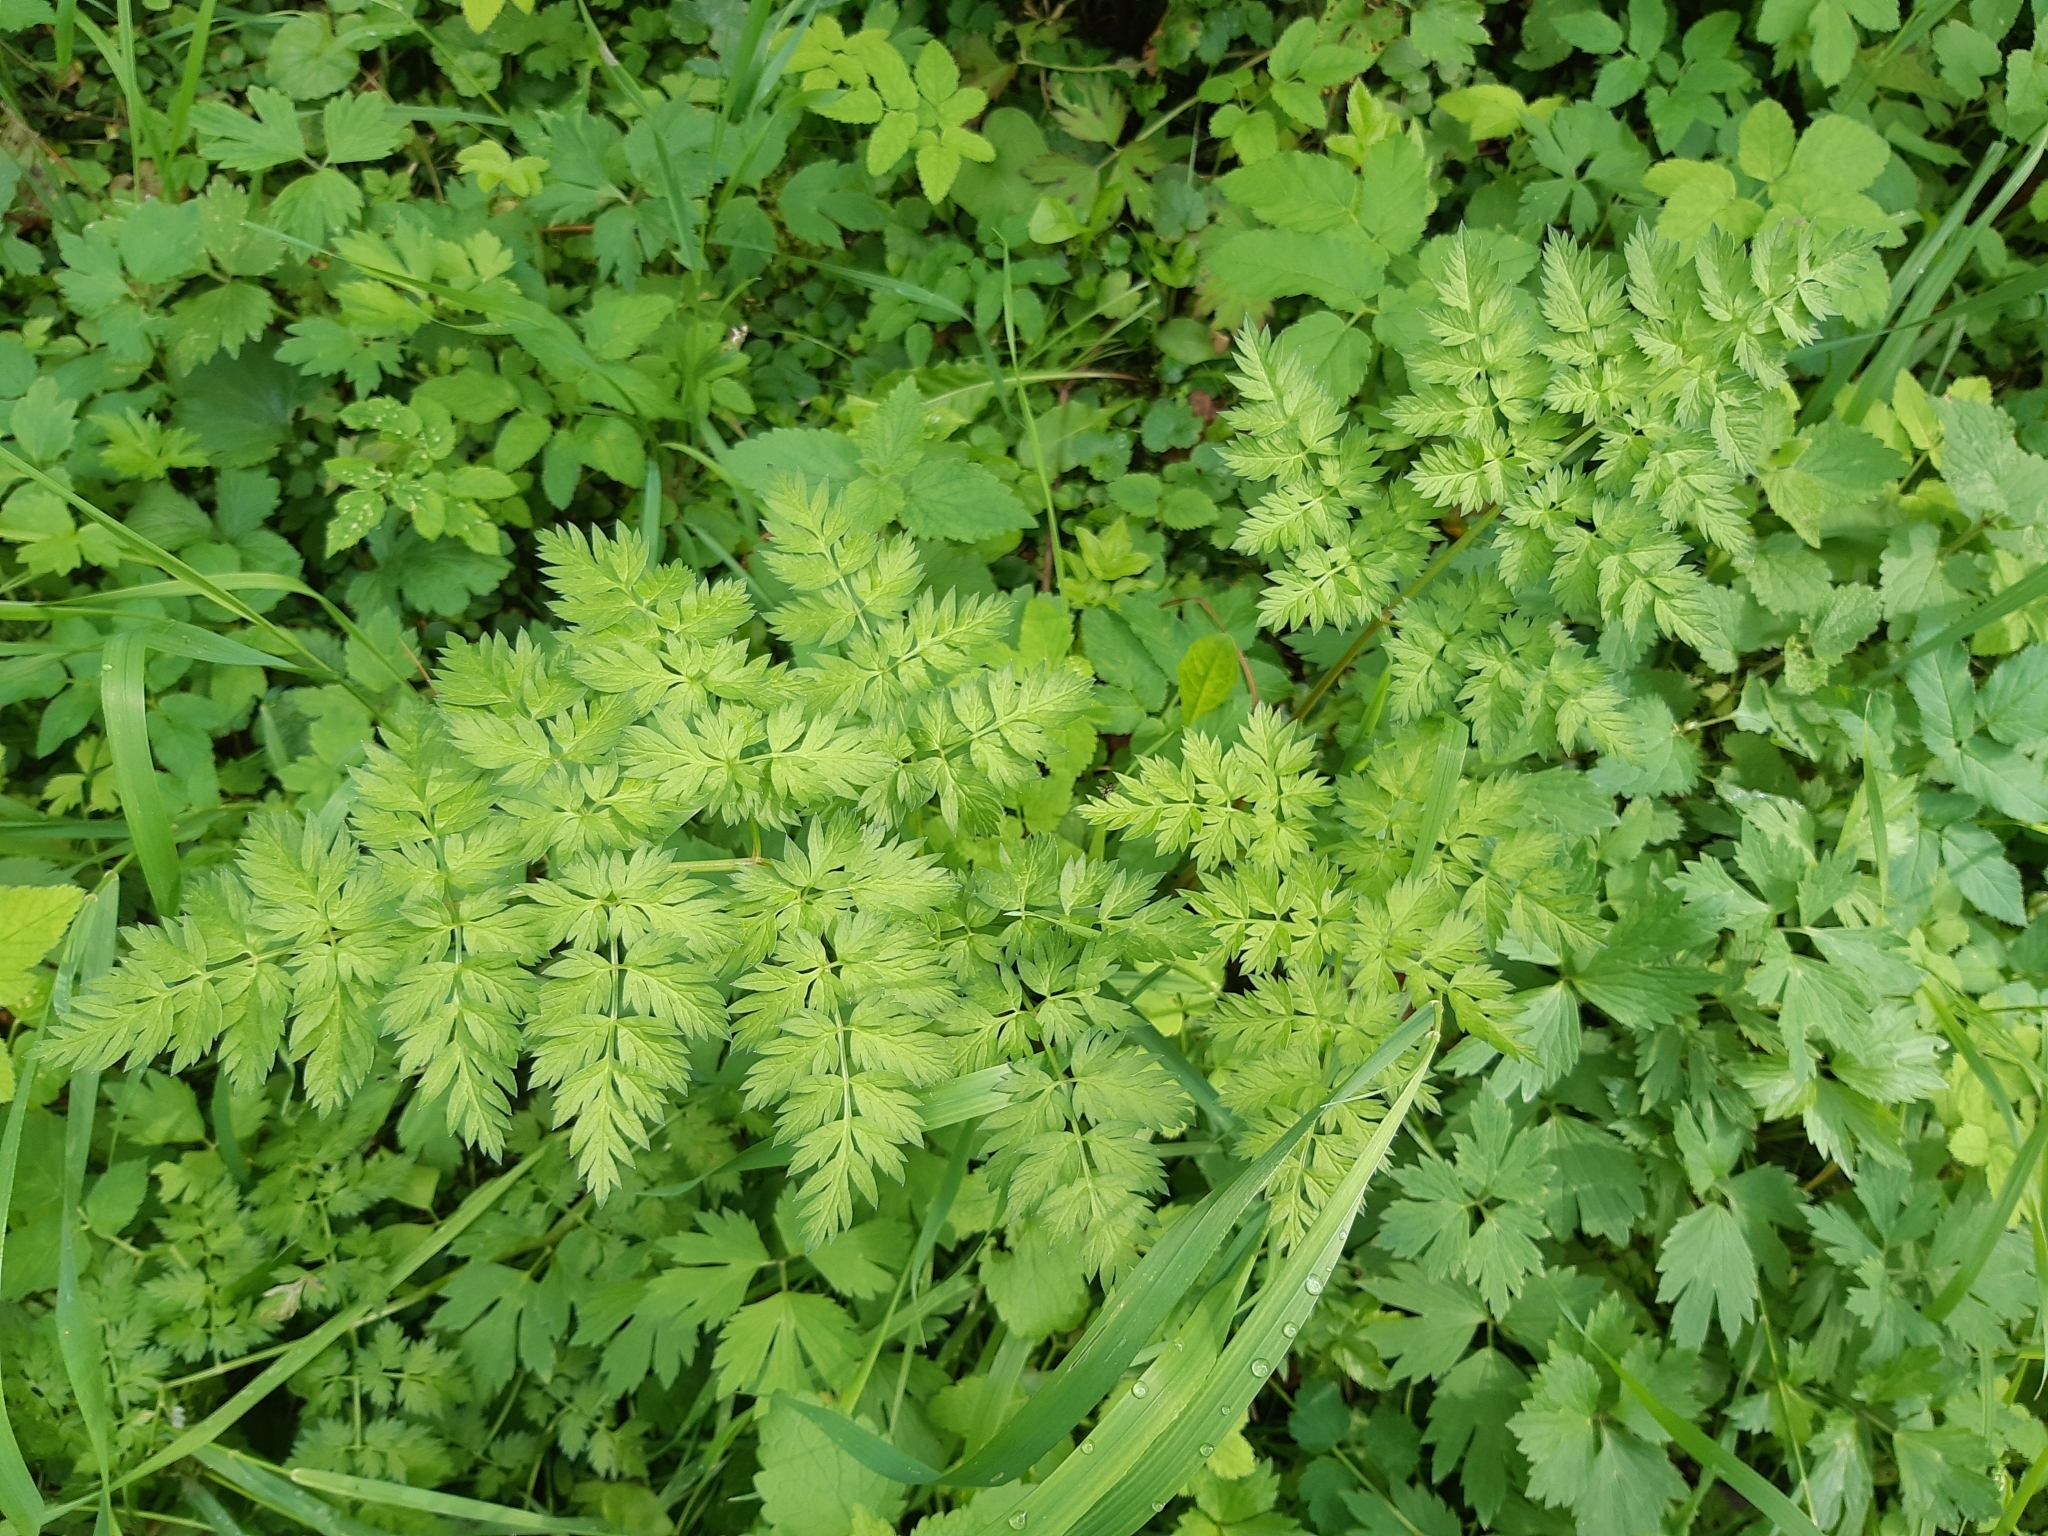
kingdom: Plantae
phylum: Tracheophyta
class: Magnoliopsida
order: Apiales
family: Apiaceae
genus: Anthriscus
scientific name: Anthriscus sylvestris
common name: Cow parsley
